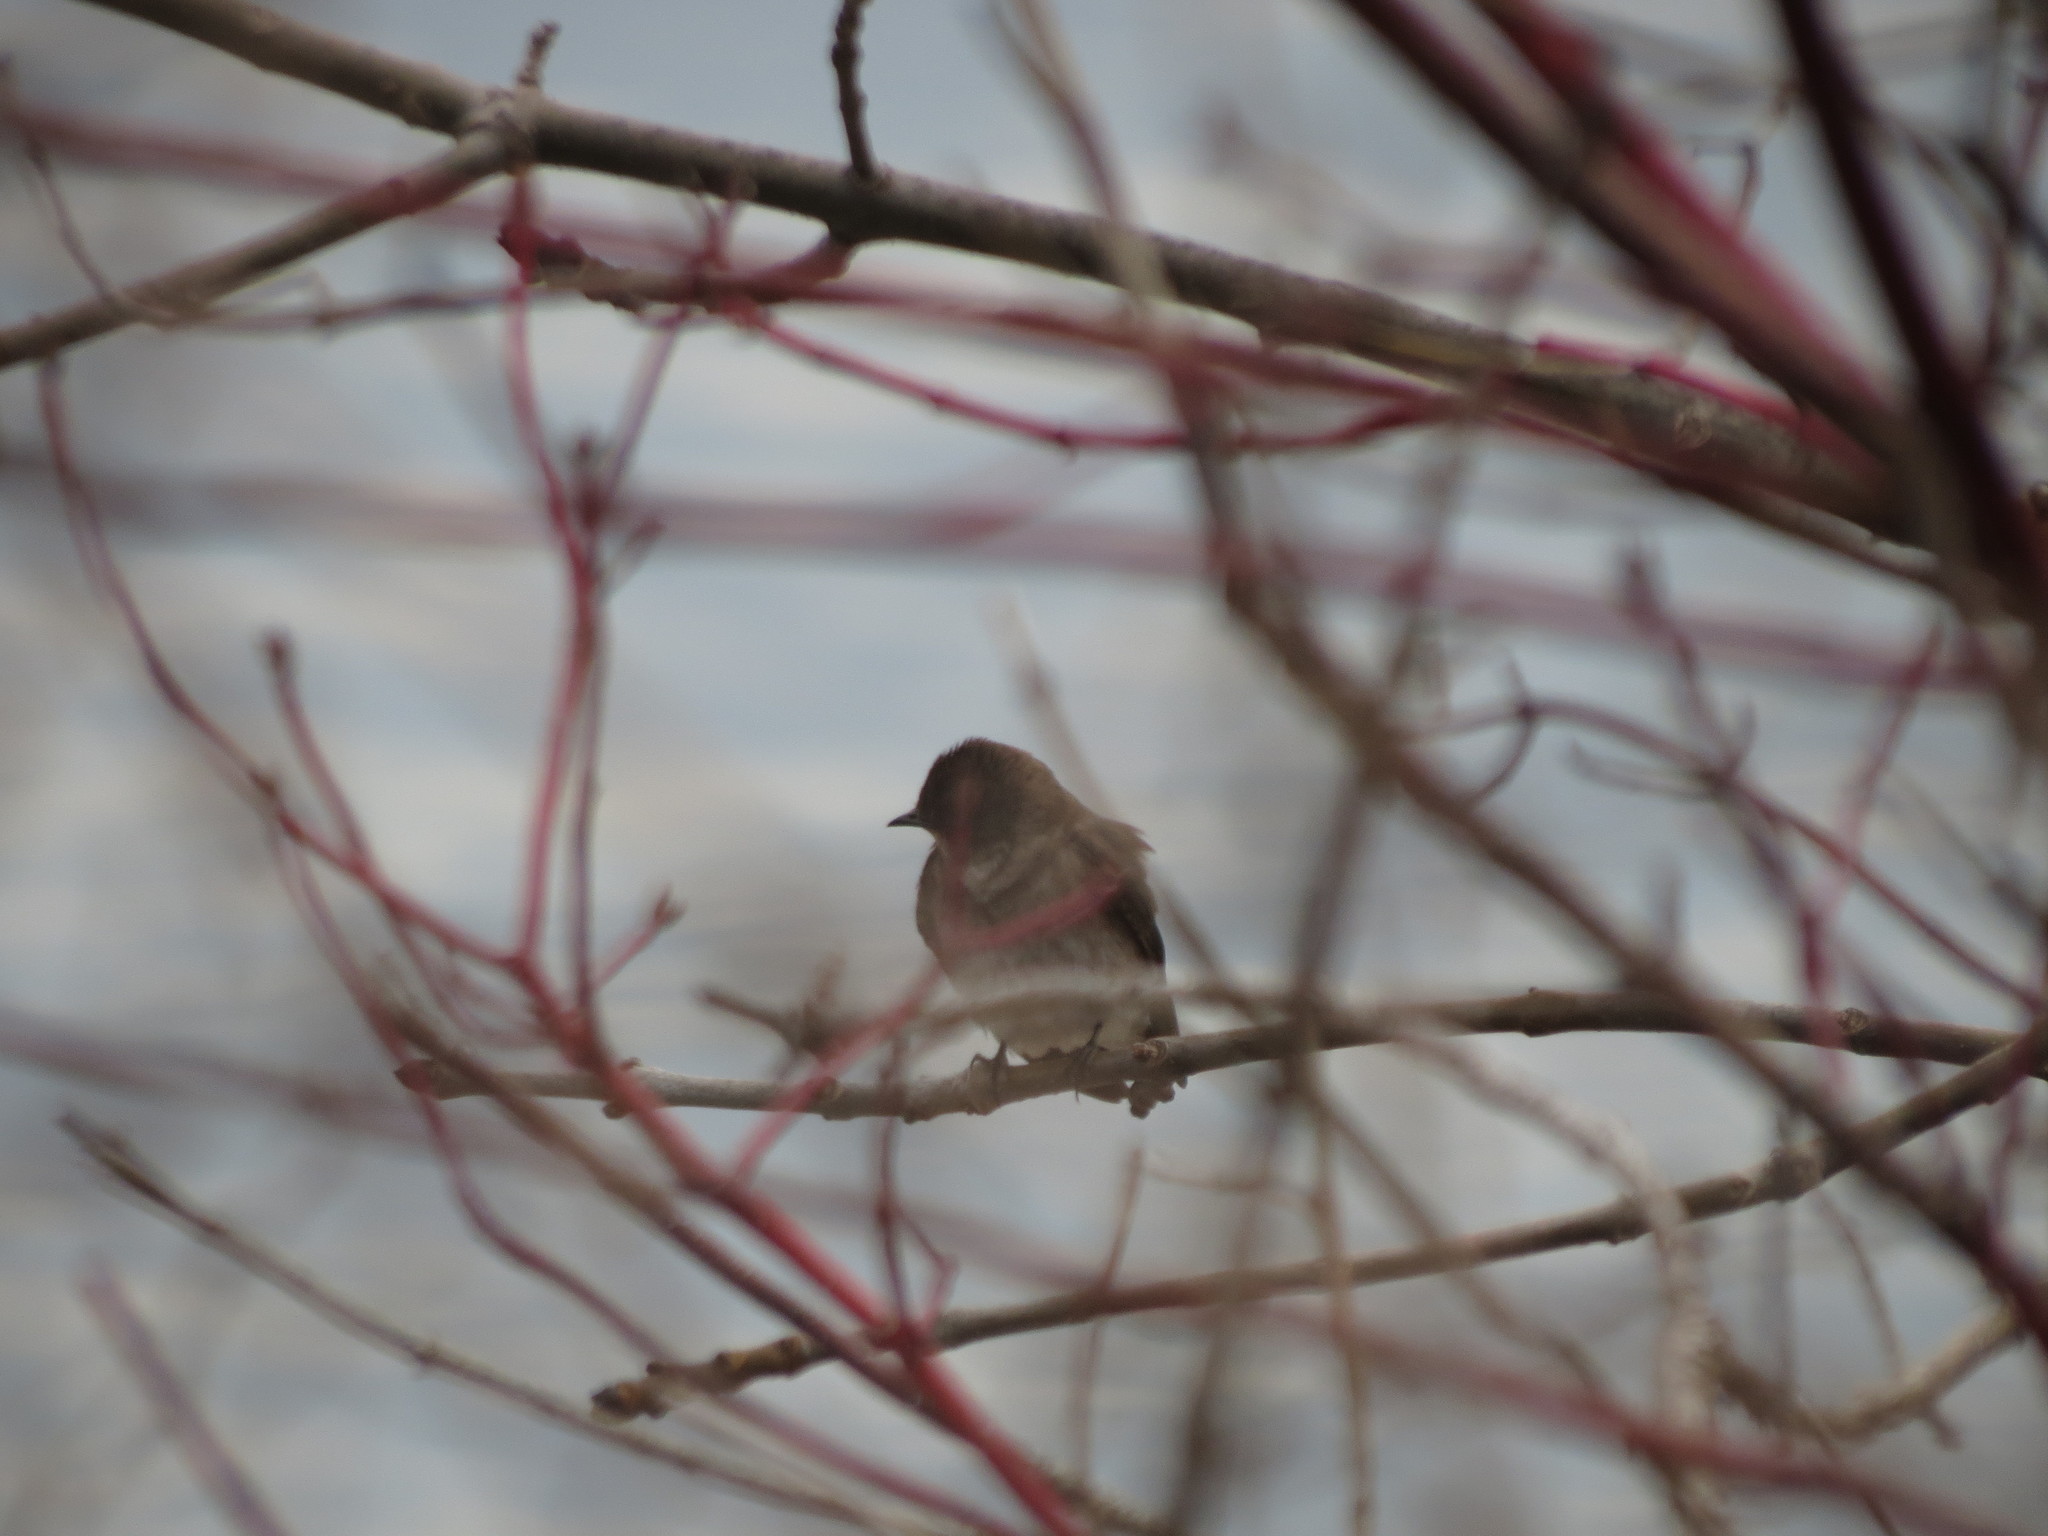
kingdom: Animalia
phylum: Chordata
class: Aves
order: Passeriformes
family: Hirundinidae
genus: Stelgidopteryx
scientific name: Stelgidopteryx serripennis
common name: Northern rough-winged swallow
